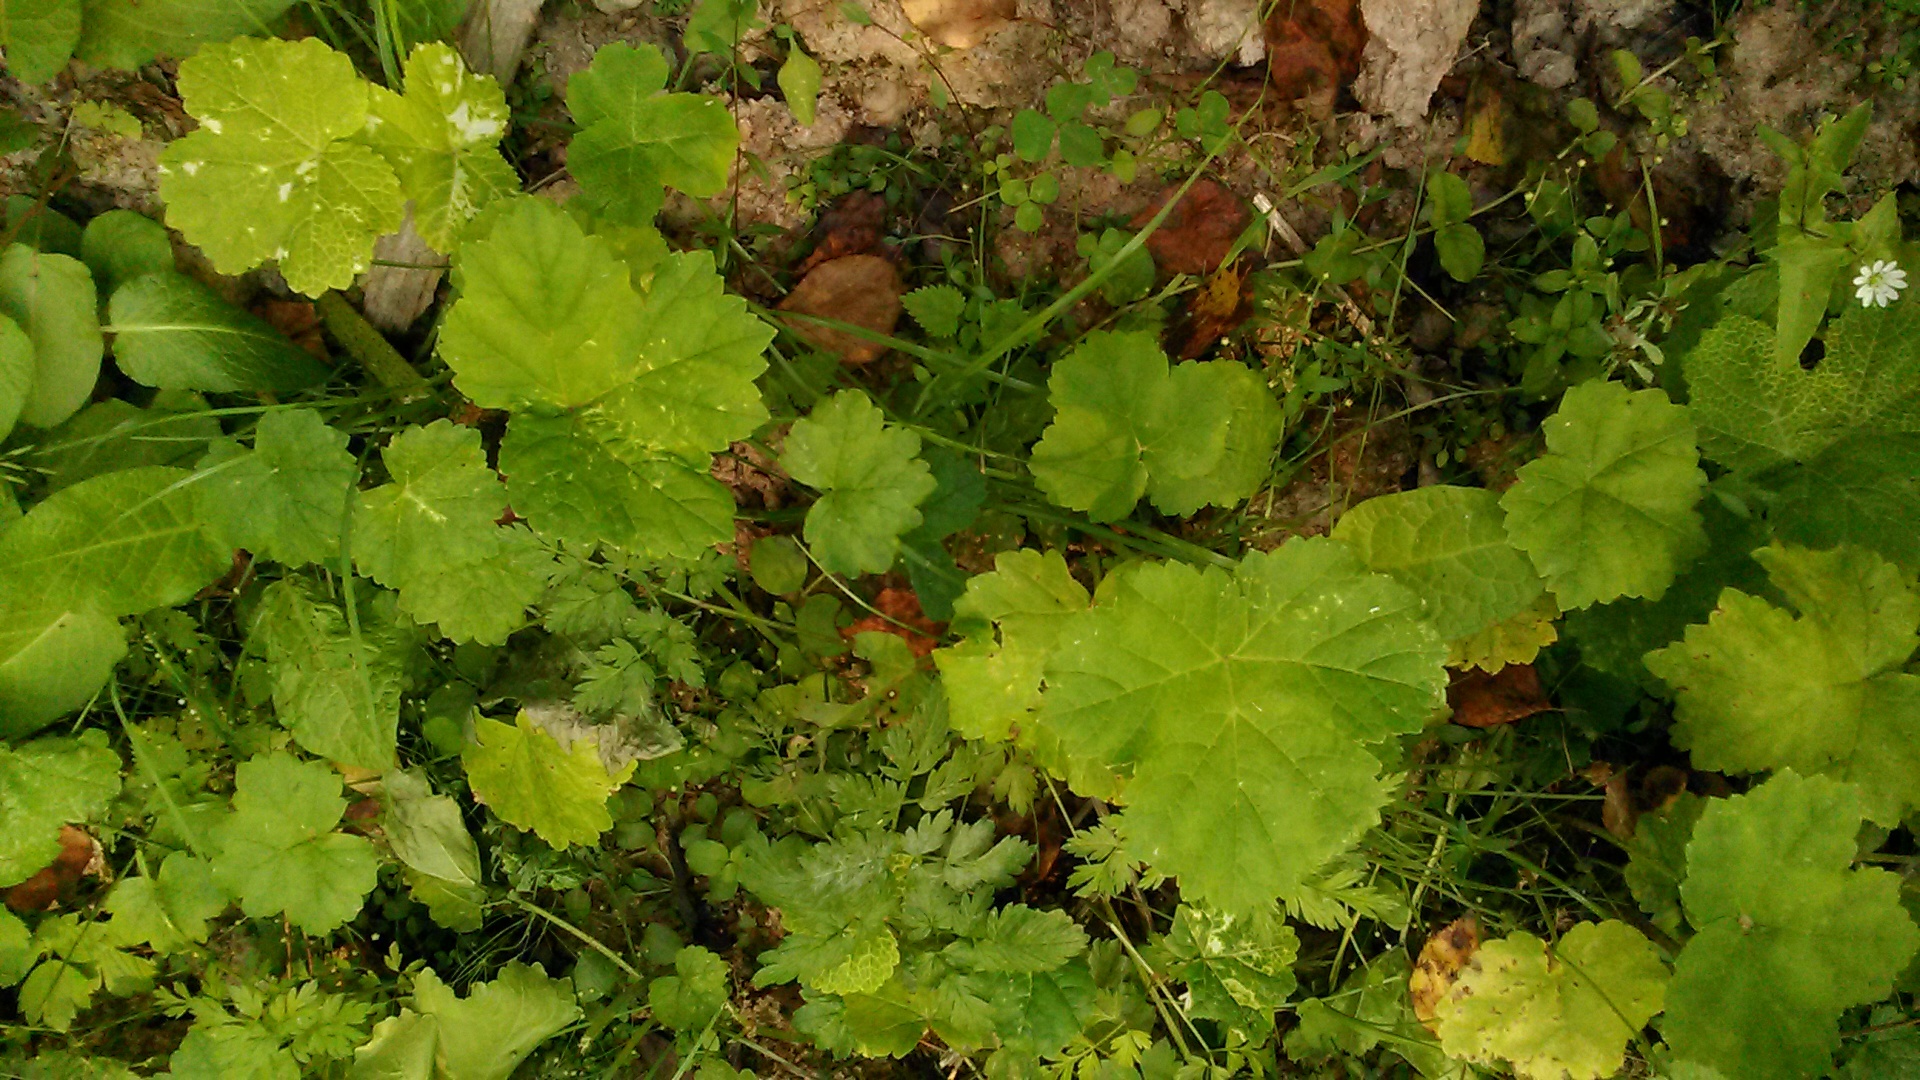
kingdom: Plantae
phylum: Tracheophyta
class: Magnoliopsida
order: Apiales
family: Apiaceae
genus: Heracleum
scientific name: Heracleum sosnowskyi
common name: Sosnowsky's hogweed
